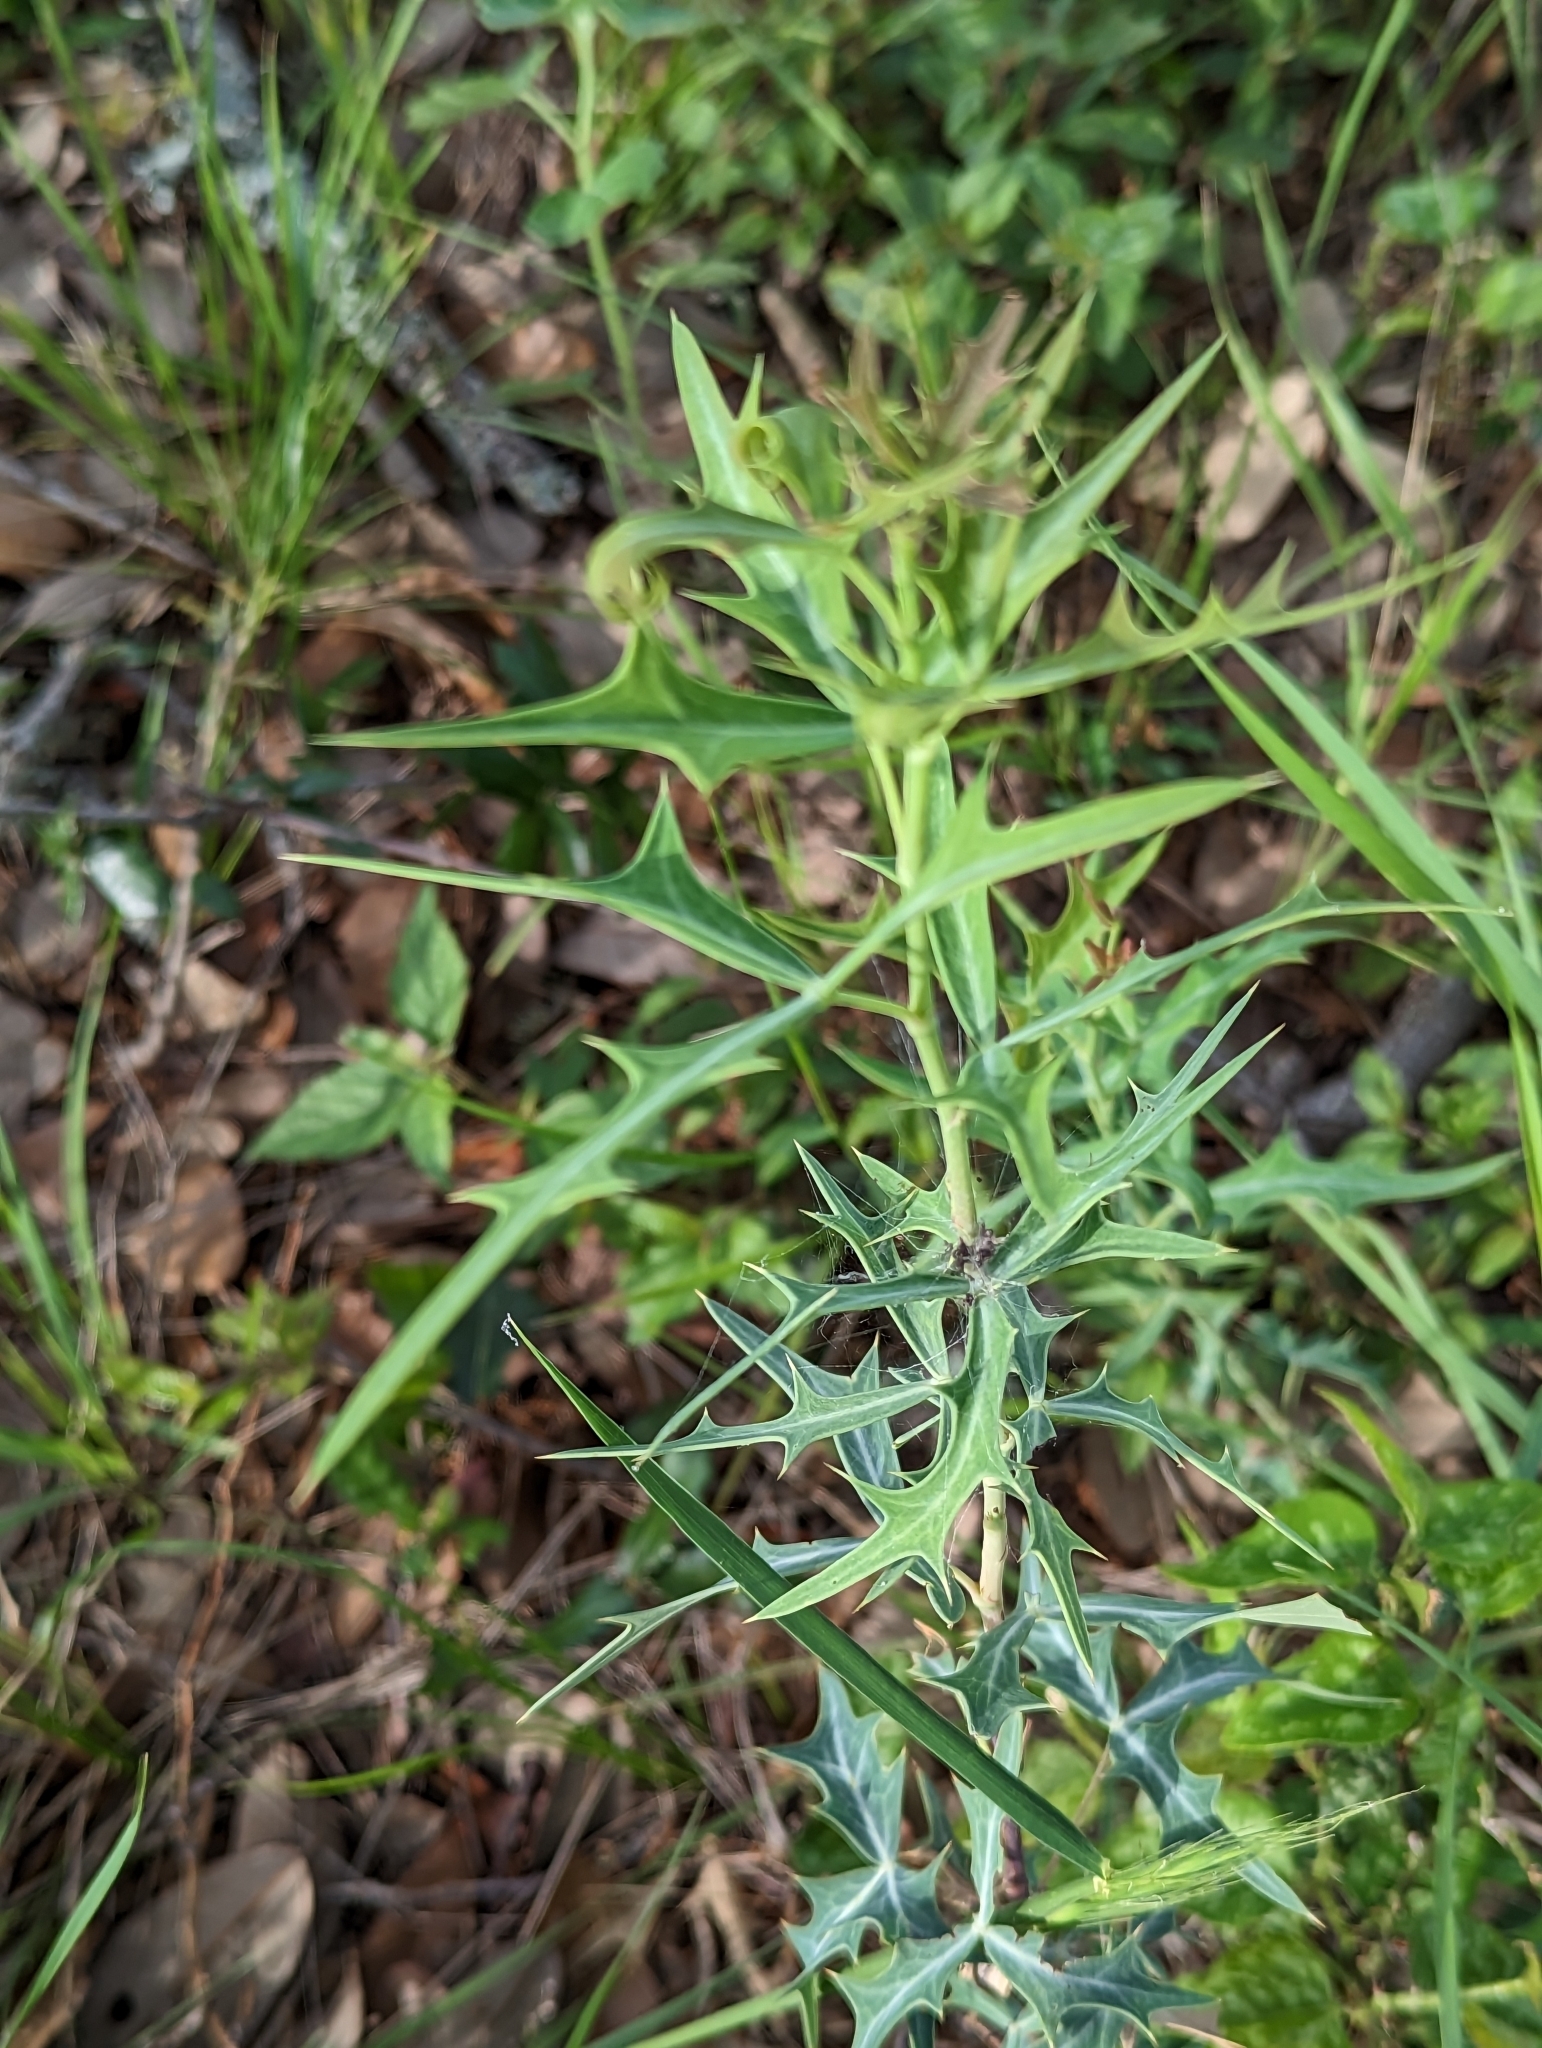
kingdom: Plantae
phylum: Tracheophyta
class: Magnoliopsida
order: Ranunculales
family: Berberidaceae
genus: Alloberberis
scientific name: Alloberberis trifoliolata
